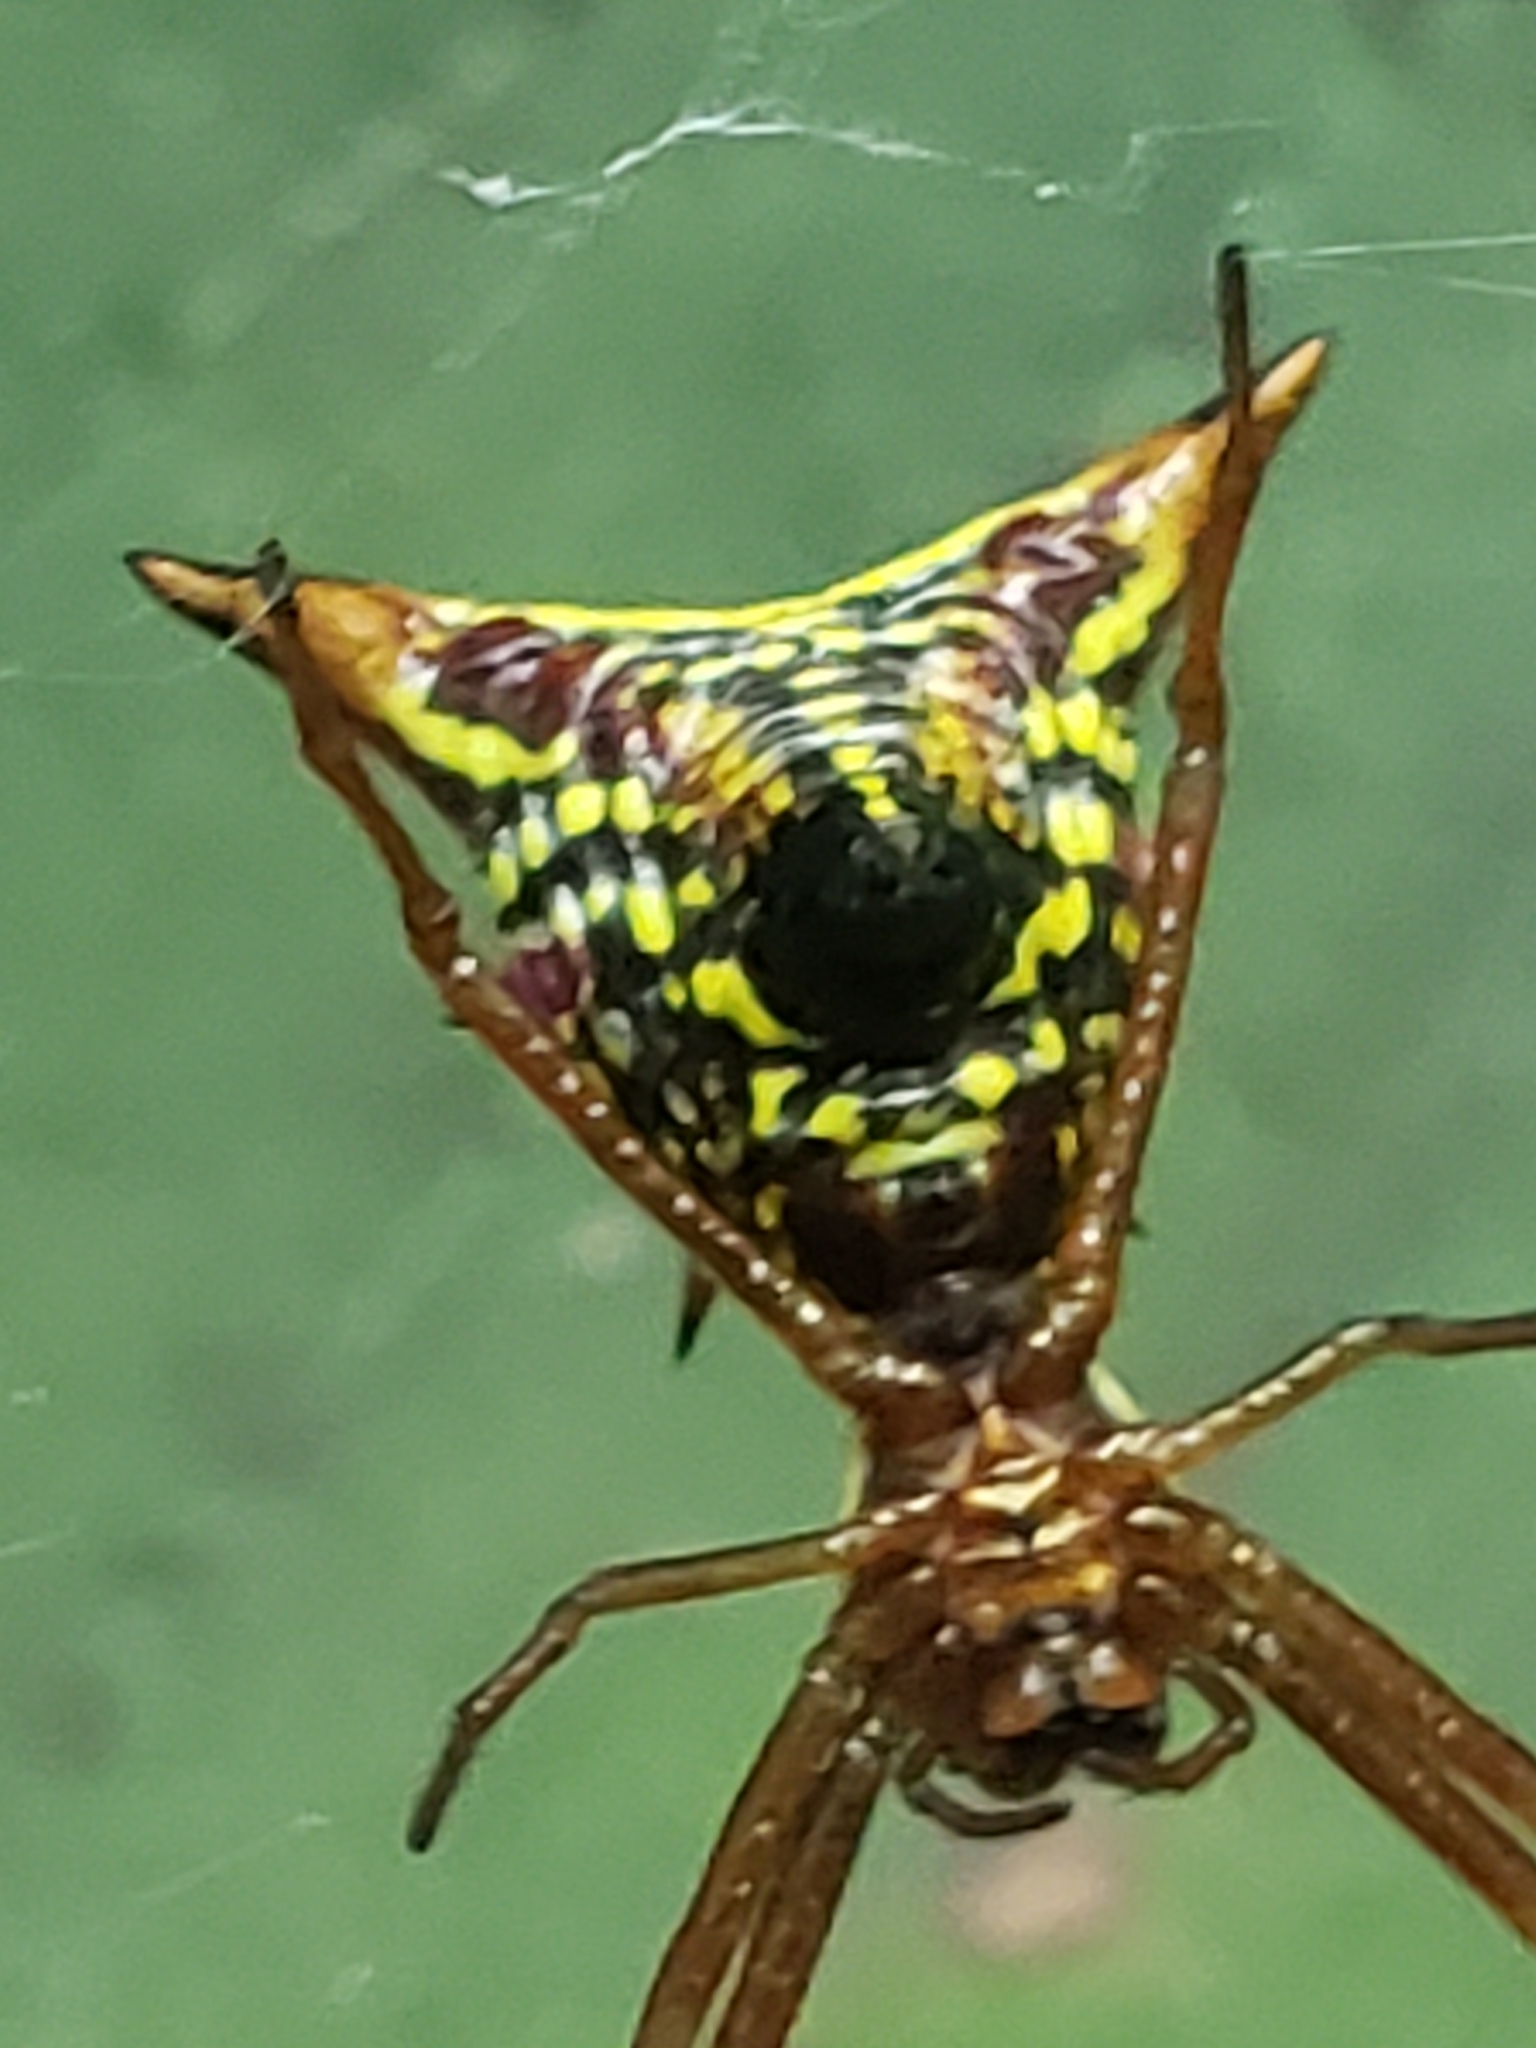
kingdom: Animalia
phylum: Arthropoda
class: Arachnida
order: Araneae
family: Araneidae
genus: Micrathena
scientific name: Micrathena sagittata
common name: Orb weavers
